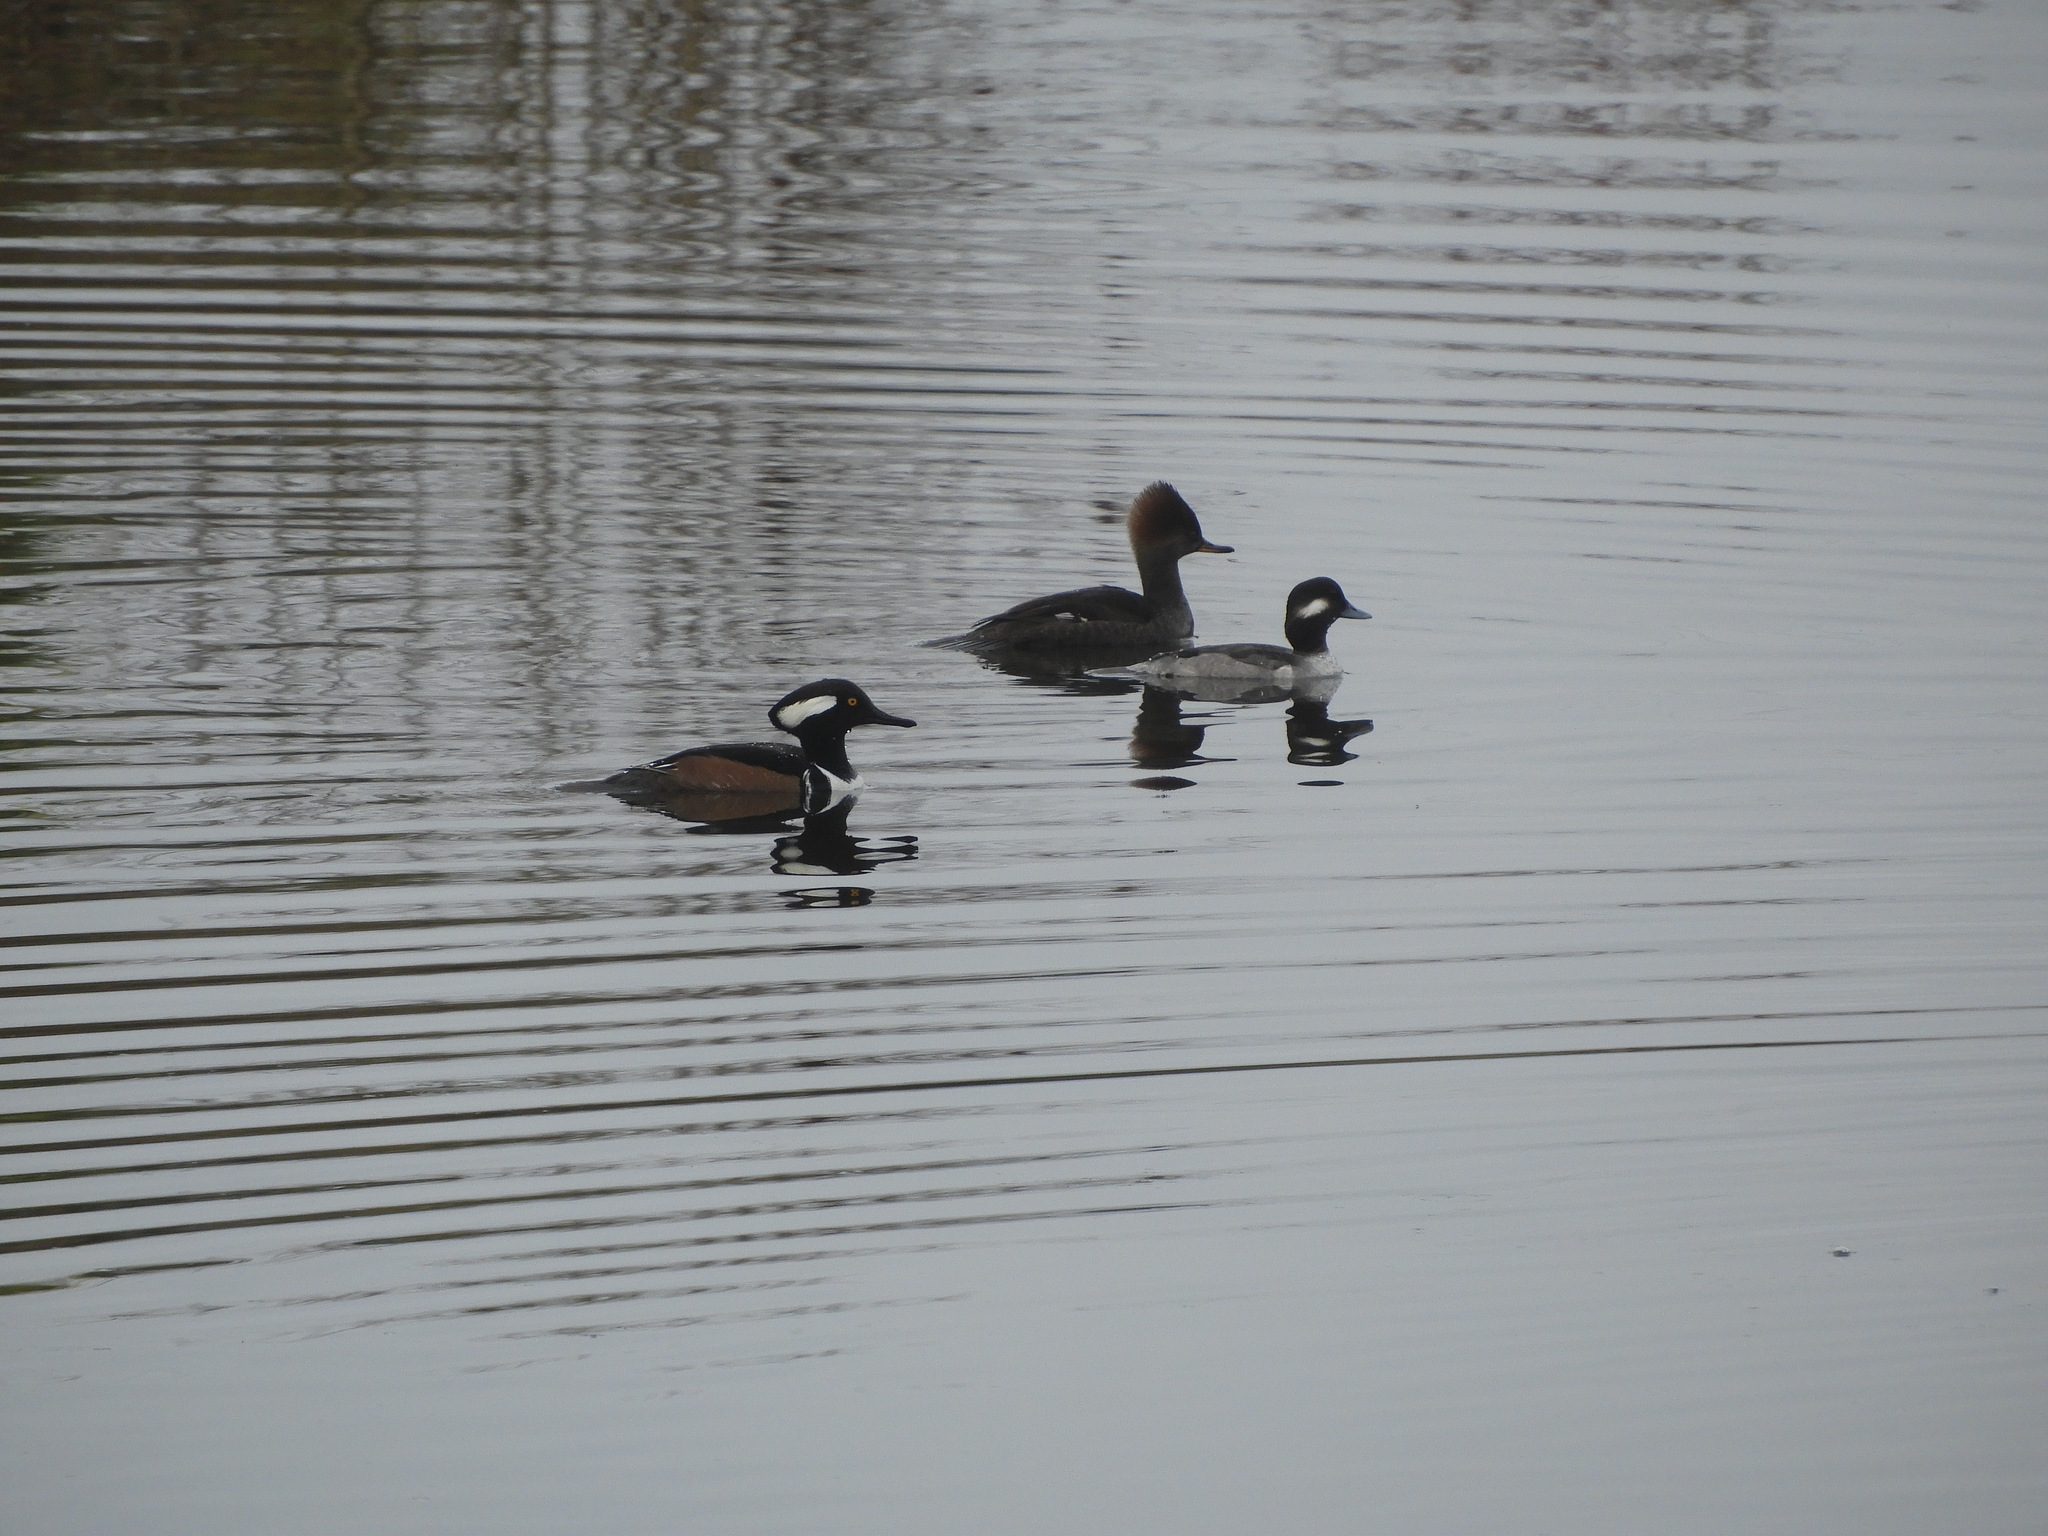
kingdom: Animalia
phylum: Chordata
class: Aves
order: Anseriformes
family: Anatidae
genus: Lophodytes
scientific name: Lophodytes cucullatus
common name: Hooded merganser
